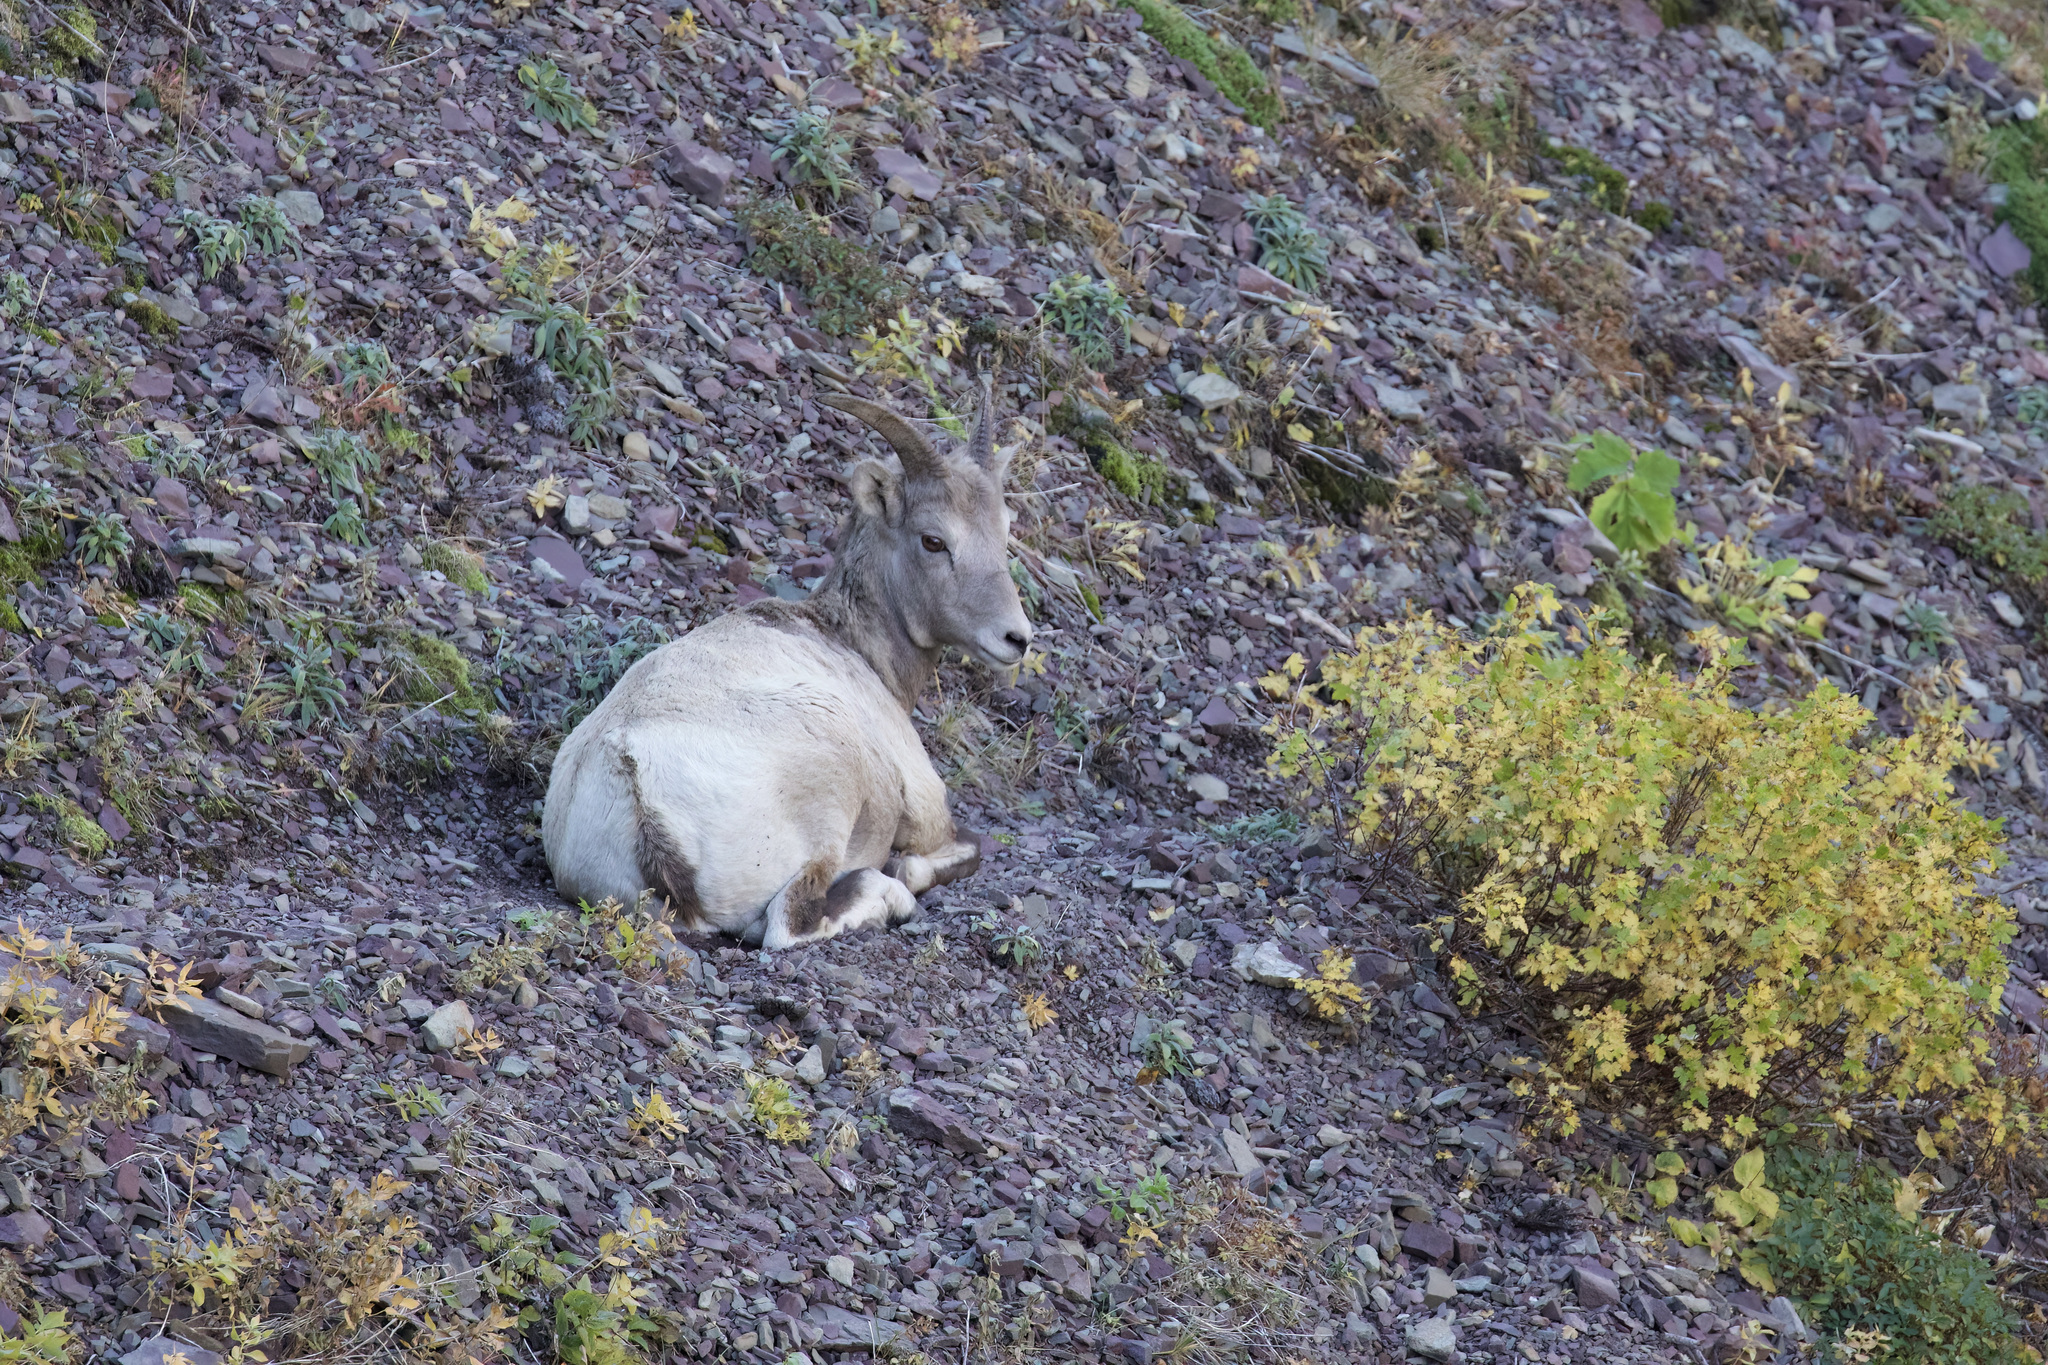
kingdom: Animalia
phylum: Chordata
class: Mammalia
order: Artiodactyla
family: Bovidae
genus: Ovis
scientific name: Ovis canadensis
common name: Bighorn sheep
